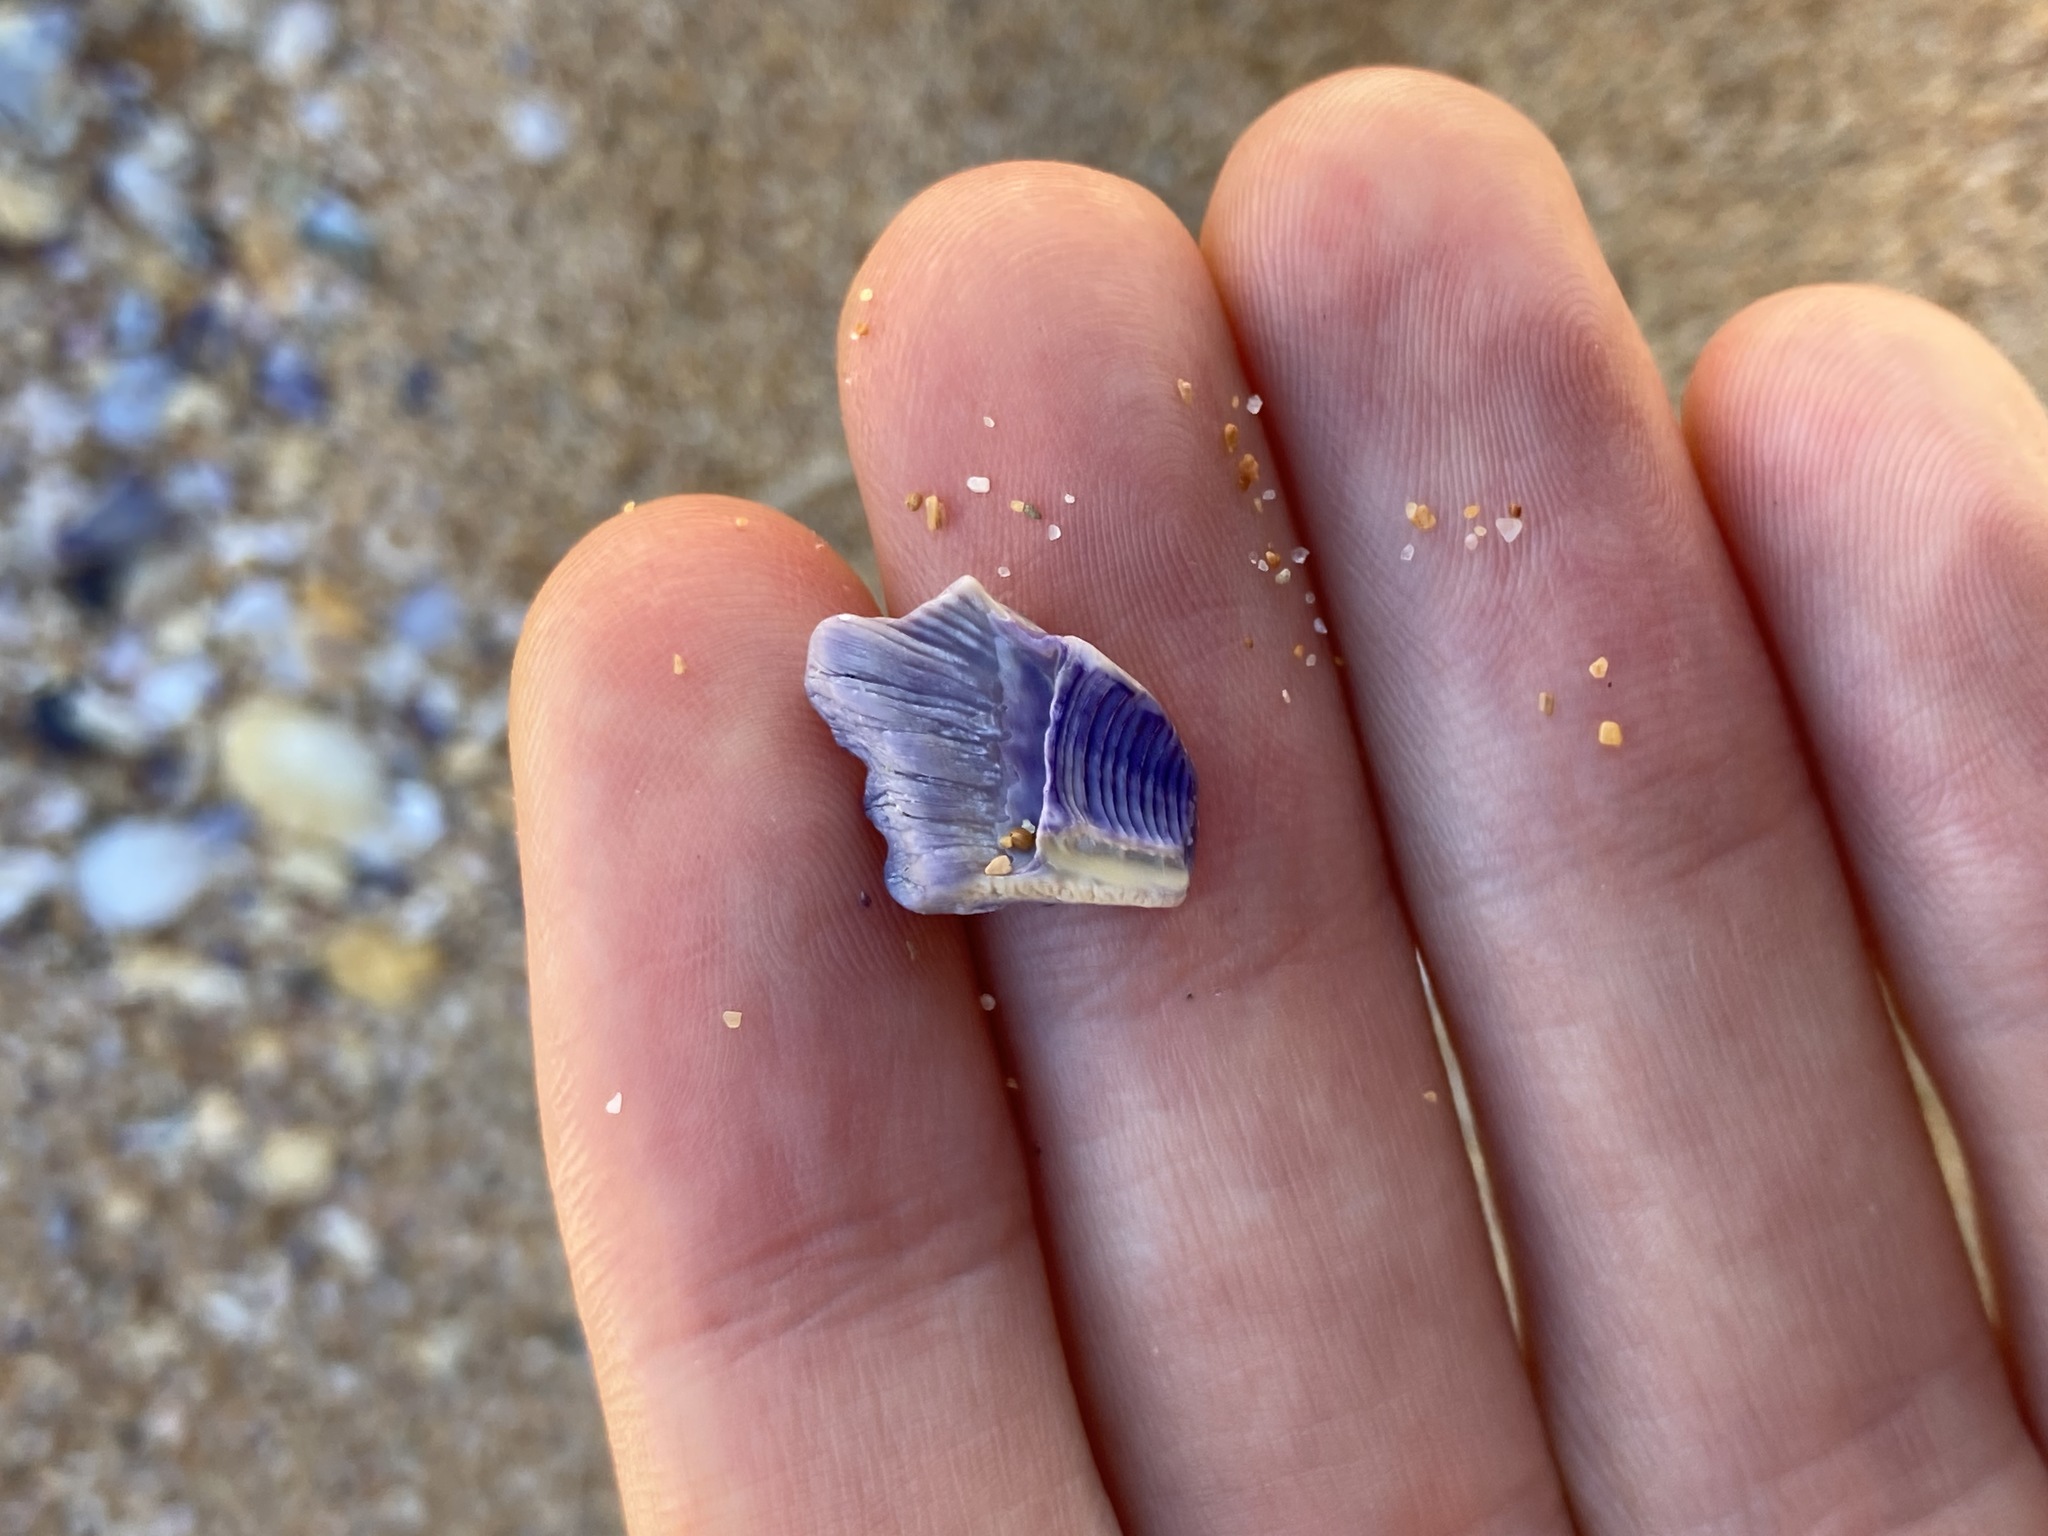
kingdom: Animalia
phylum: Arthropoda
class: Maxillopoda
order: Sessilia
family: Austrobalanidae
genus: Austrobalanus
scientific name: Austrobalanus imperator
